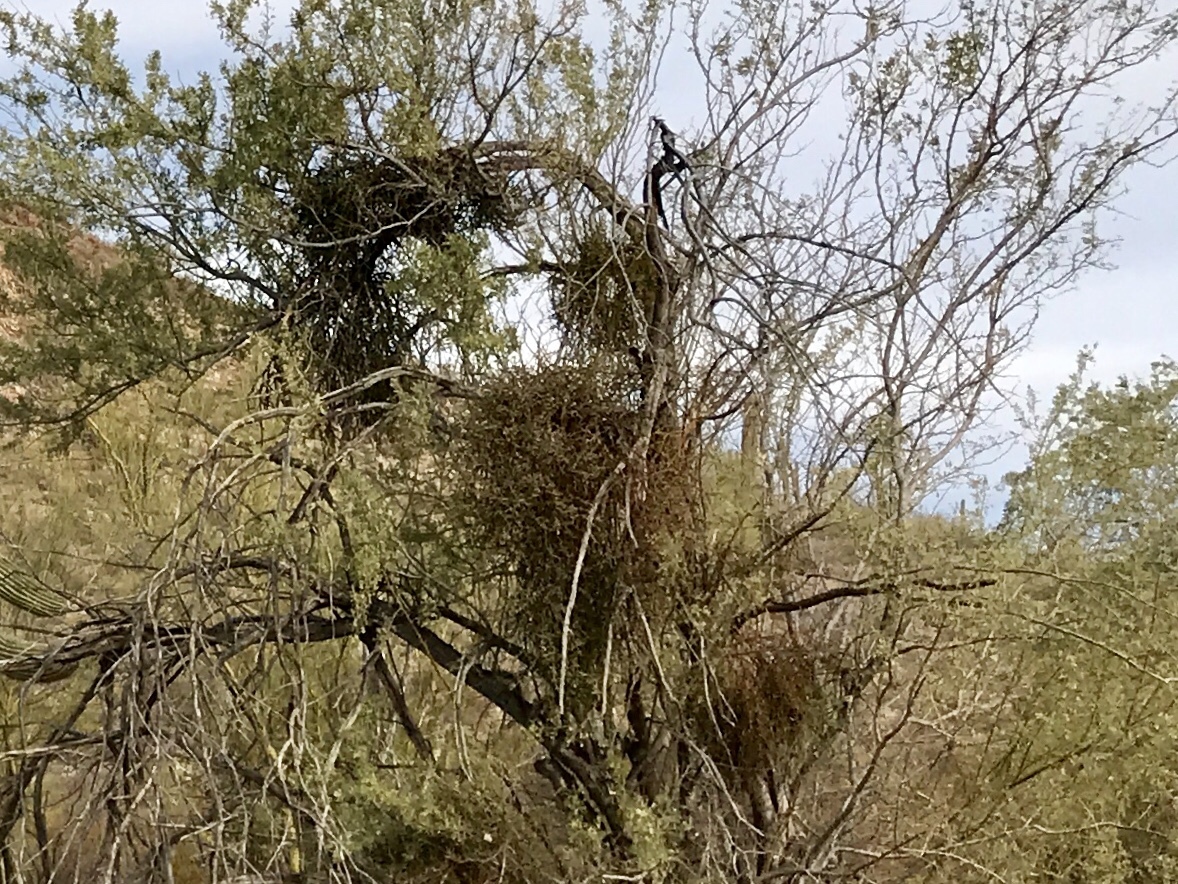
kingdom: Plantae
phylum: Tracheophyta
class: Magnoliopsida
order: Santalales
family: Viscaceae
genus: Phoradendron
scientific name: Phoradendron californicum
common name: Acacia mistletoe
